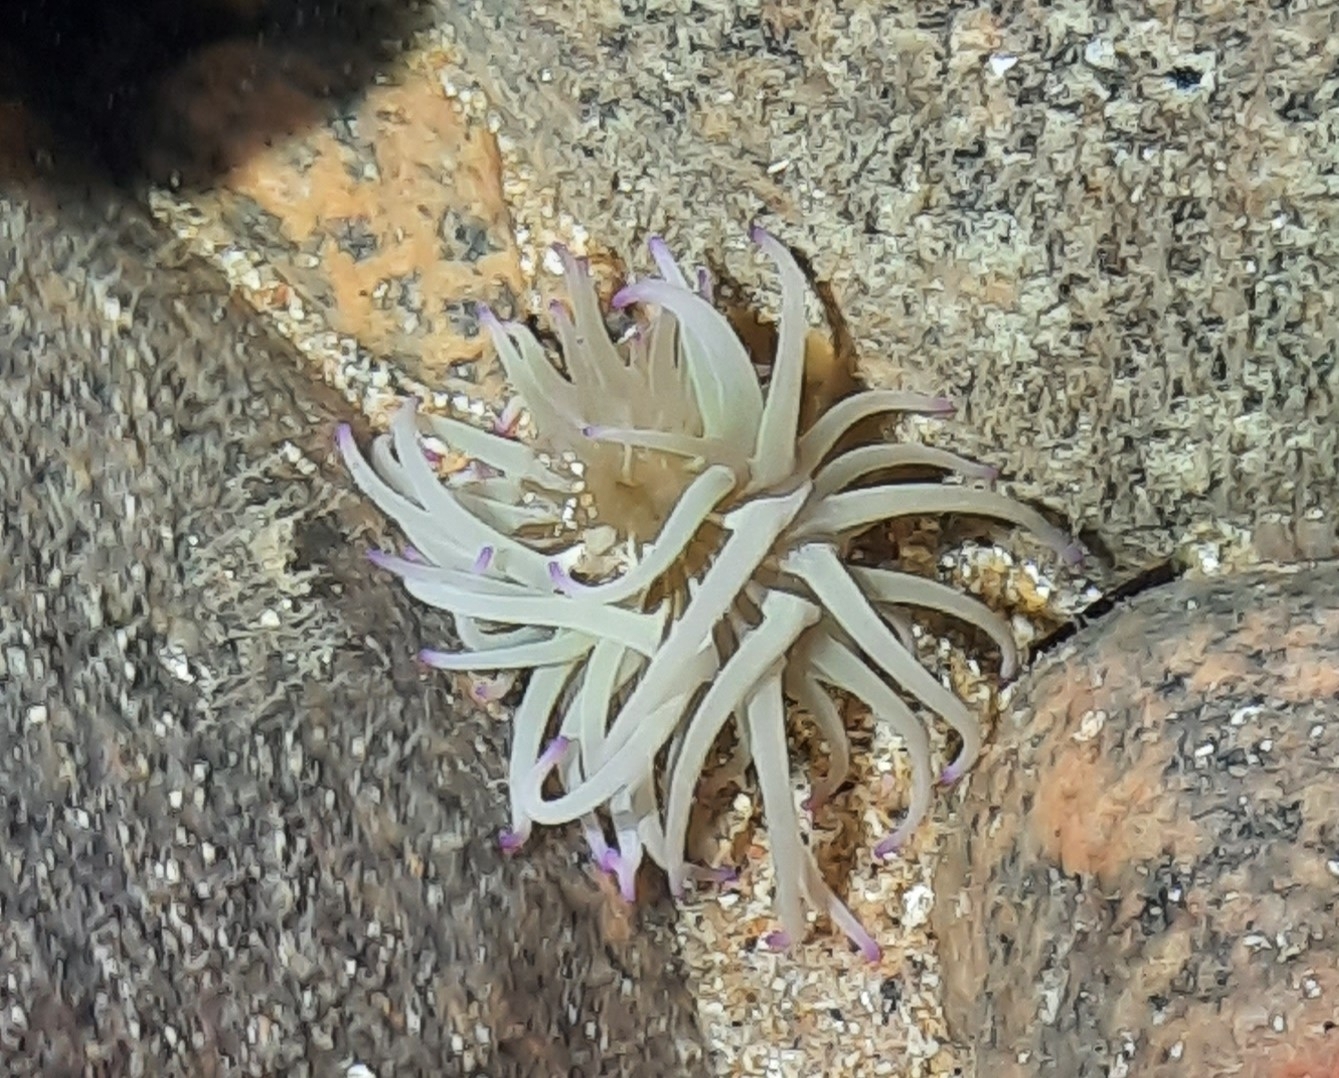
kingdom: Animalia
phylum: Cnidaria
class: Anthozoa
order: Actiniaria
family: Actiniidae
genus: Anemonia
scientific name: Anemonia viridis
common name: Snakelocks anemone
